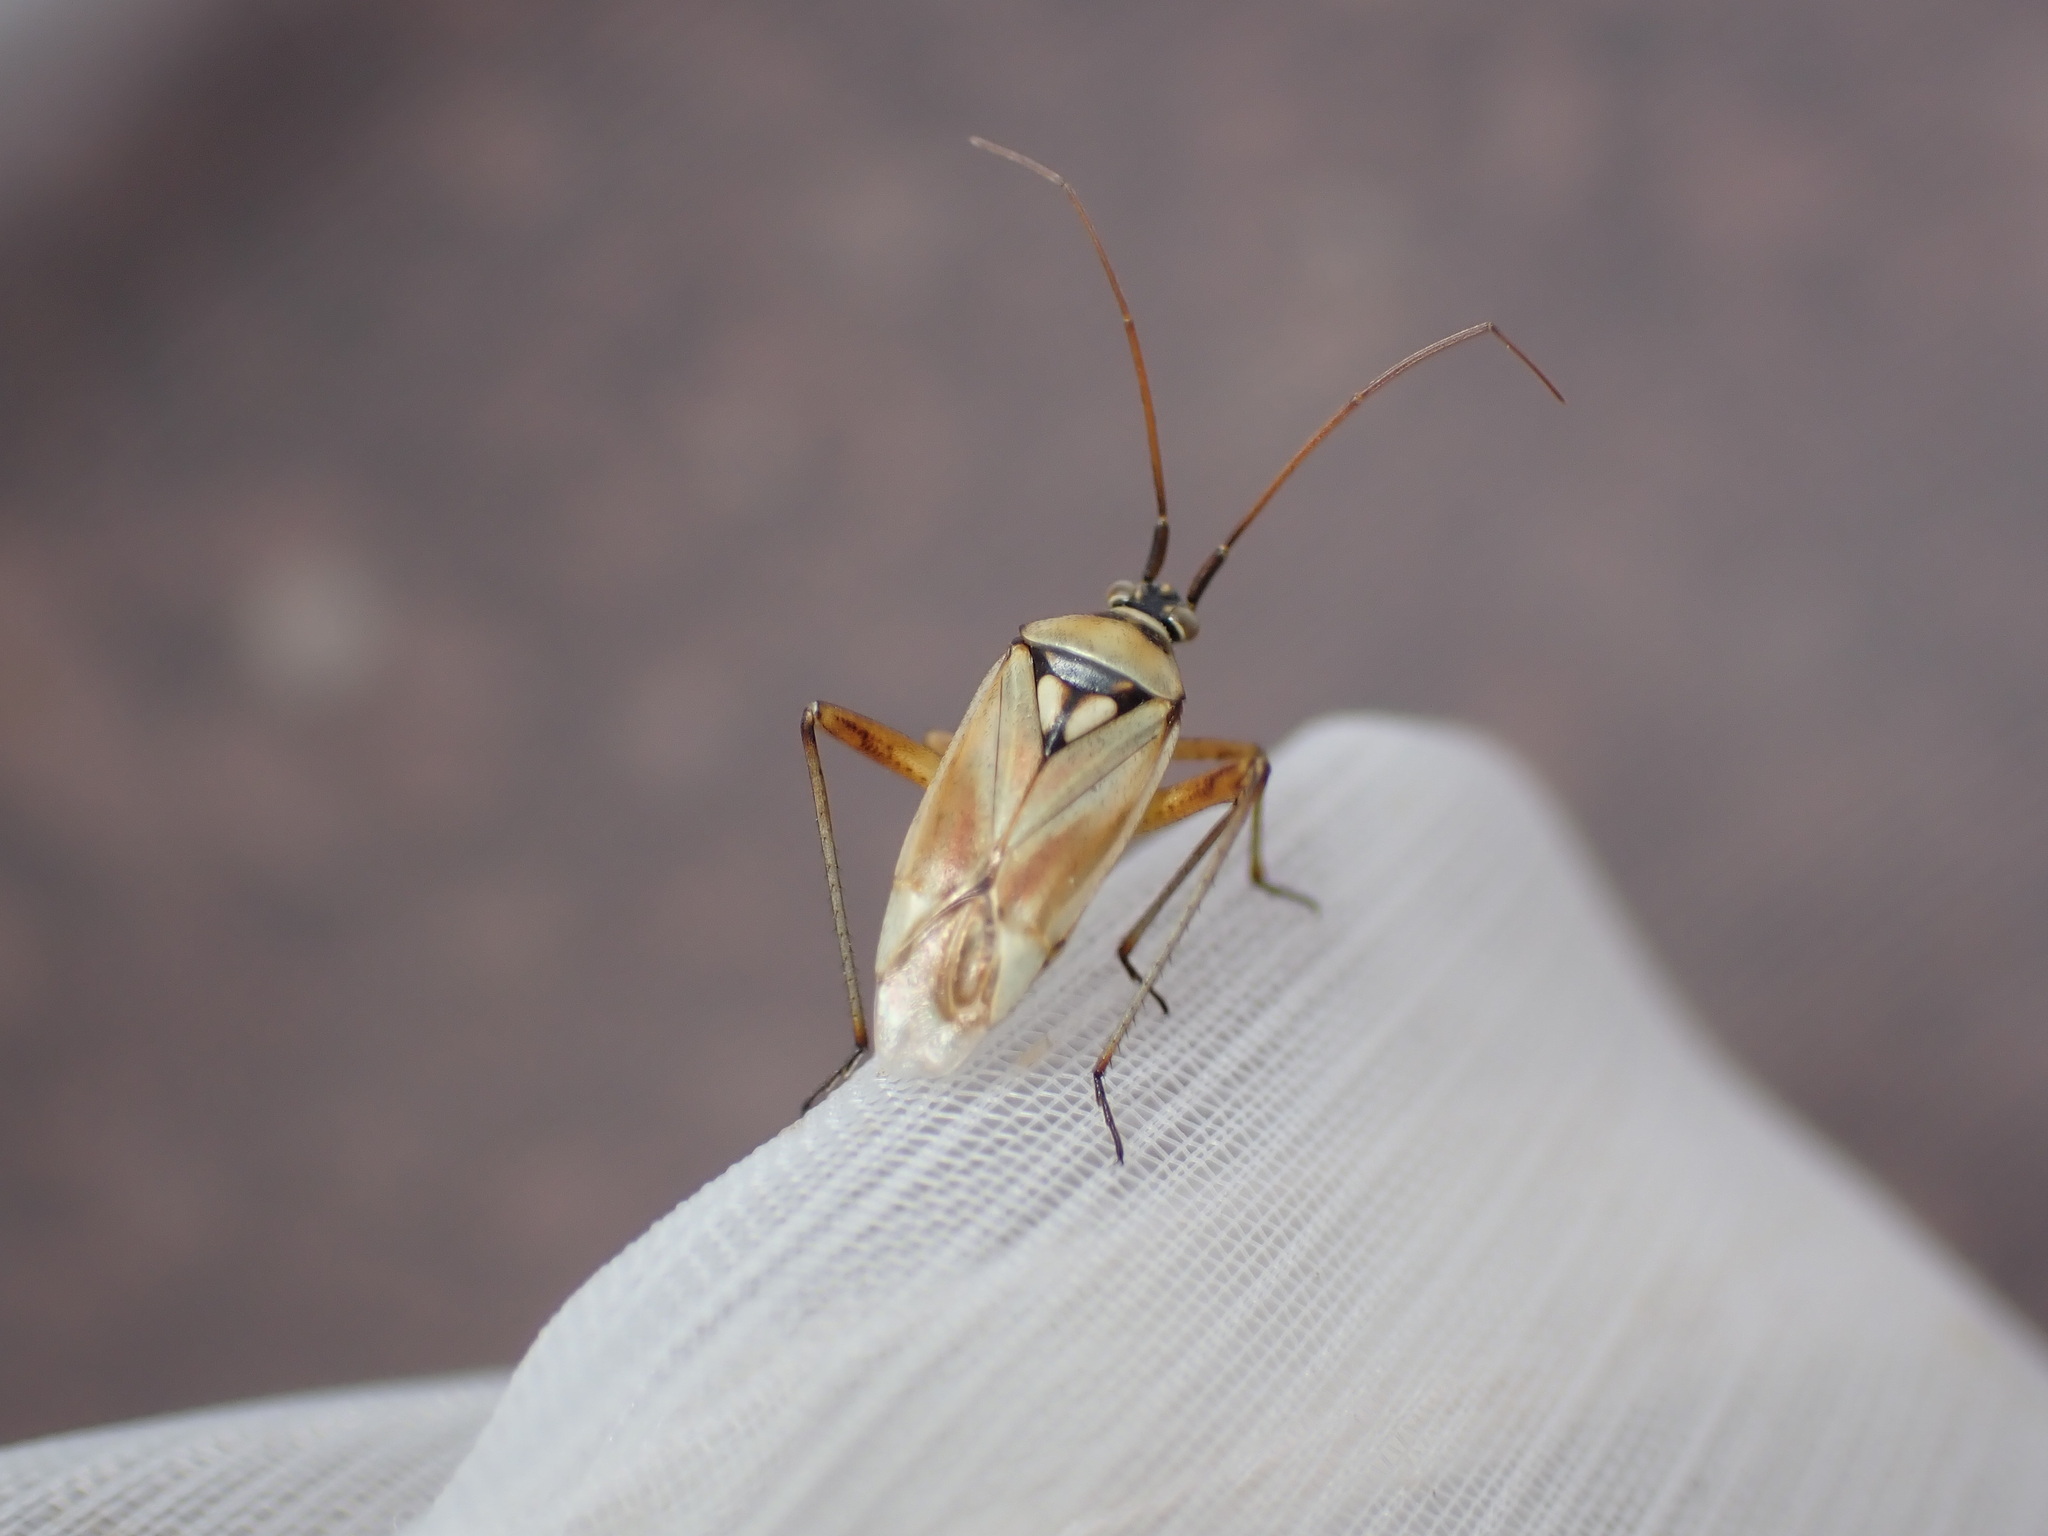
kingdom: Animalia
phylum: Arthropoda
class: Insecta
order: Hemiptera
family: Miridae
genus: Calocoris
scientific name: Calocoris roseomaculatus
